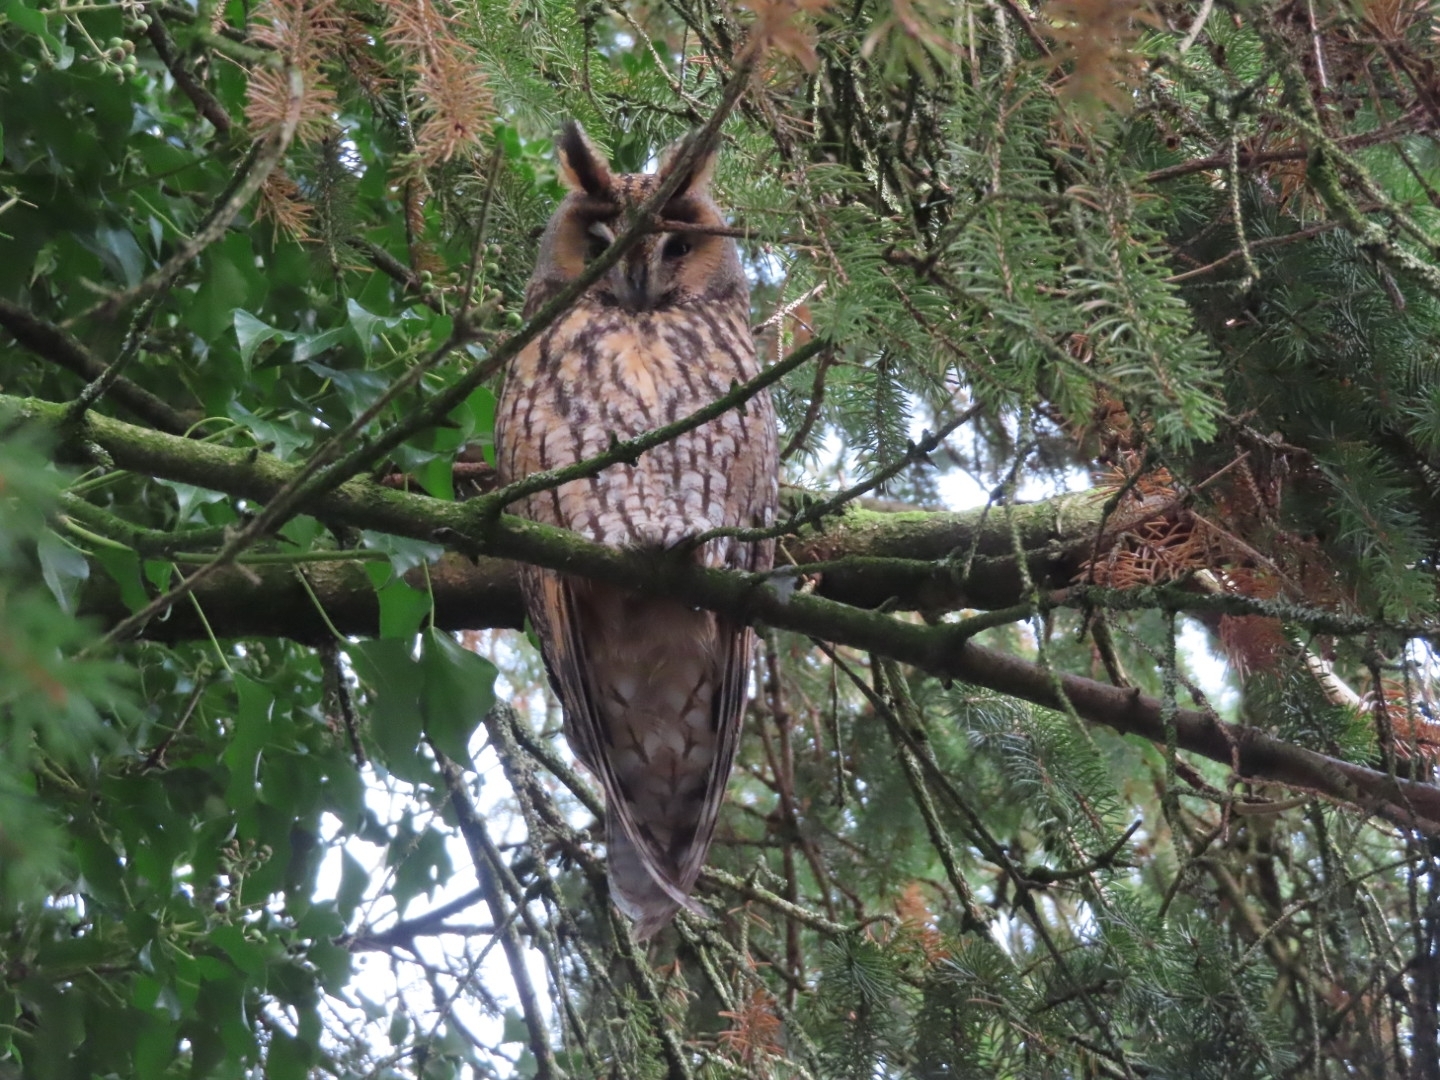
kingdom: Animalia
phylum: Chordata
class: Aves
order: Strigiformes
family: Strigidae
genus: Asio
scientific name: Asio otus
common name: Long-eared owl
